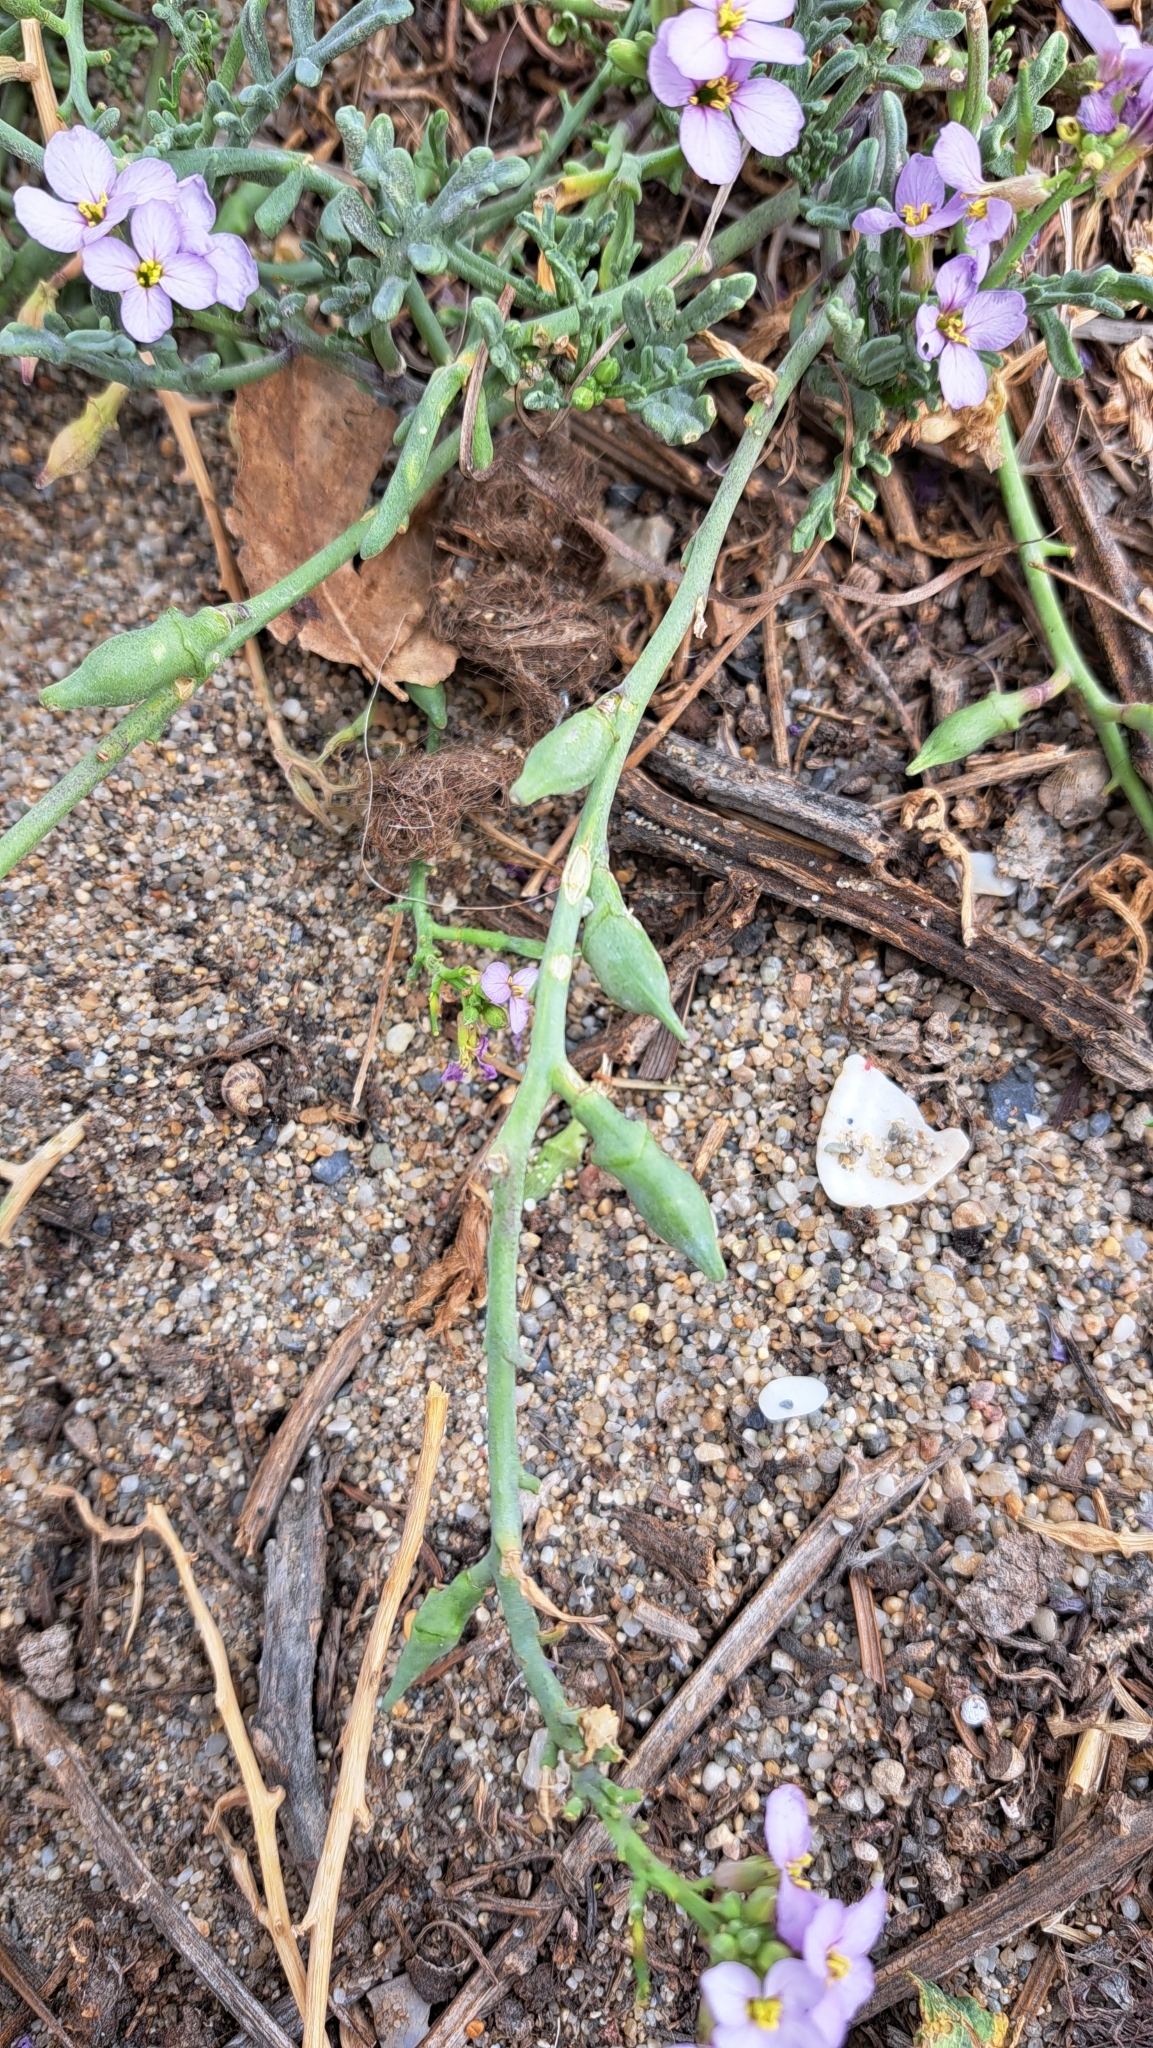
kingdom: Plantae
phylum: Tracheophyta
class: Magnoliopsida
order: Brassicales
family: Brassicaceae
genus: Cakile
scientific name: Cakile maritima
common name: Sea rocket
